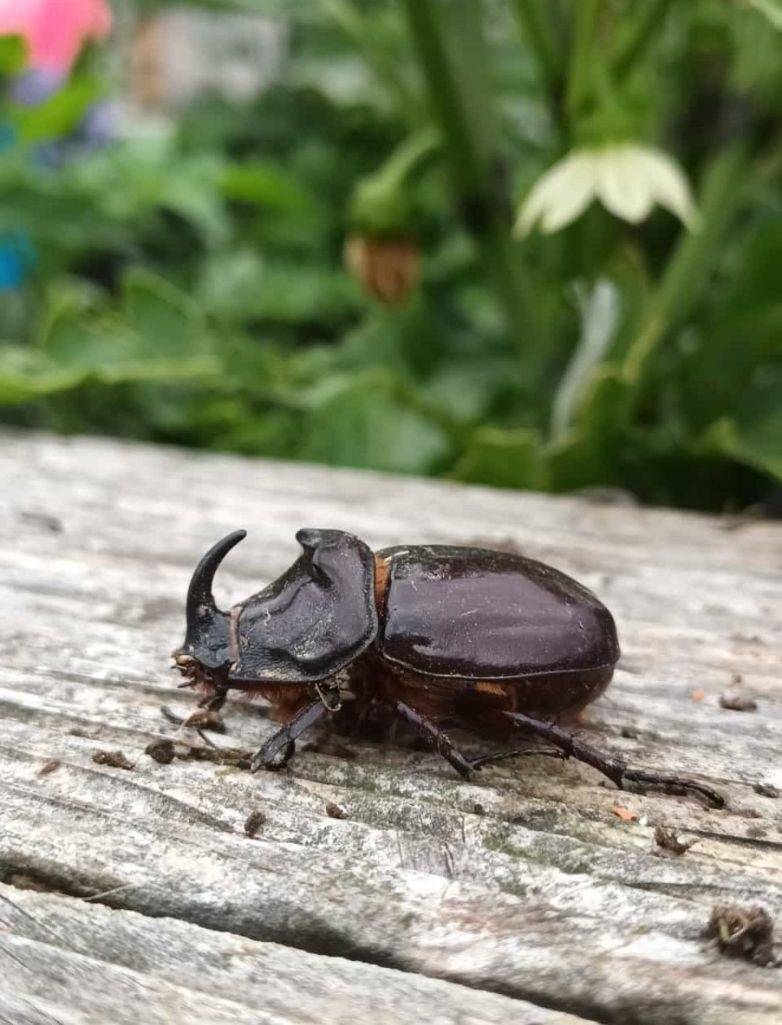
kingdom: Animalia
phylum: Arthropoda
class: Insecta
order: Coleoptera
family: Scarabaeidae
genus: Oryctes
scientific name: Oryctes nasicornis
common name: European rhinoceros beetle
